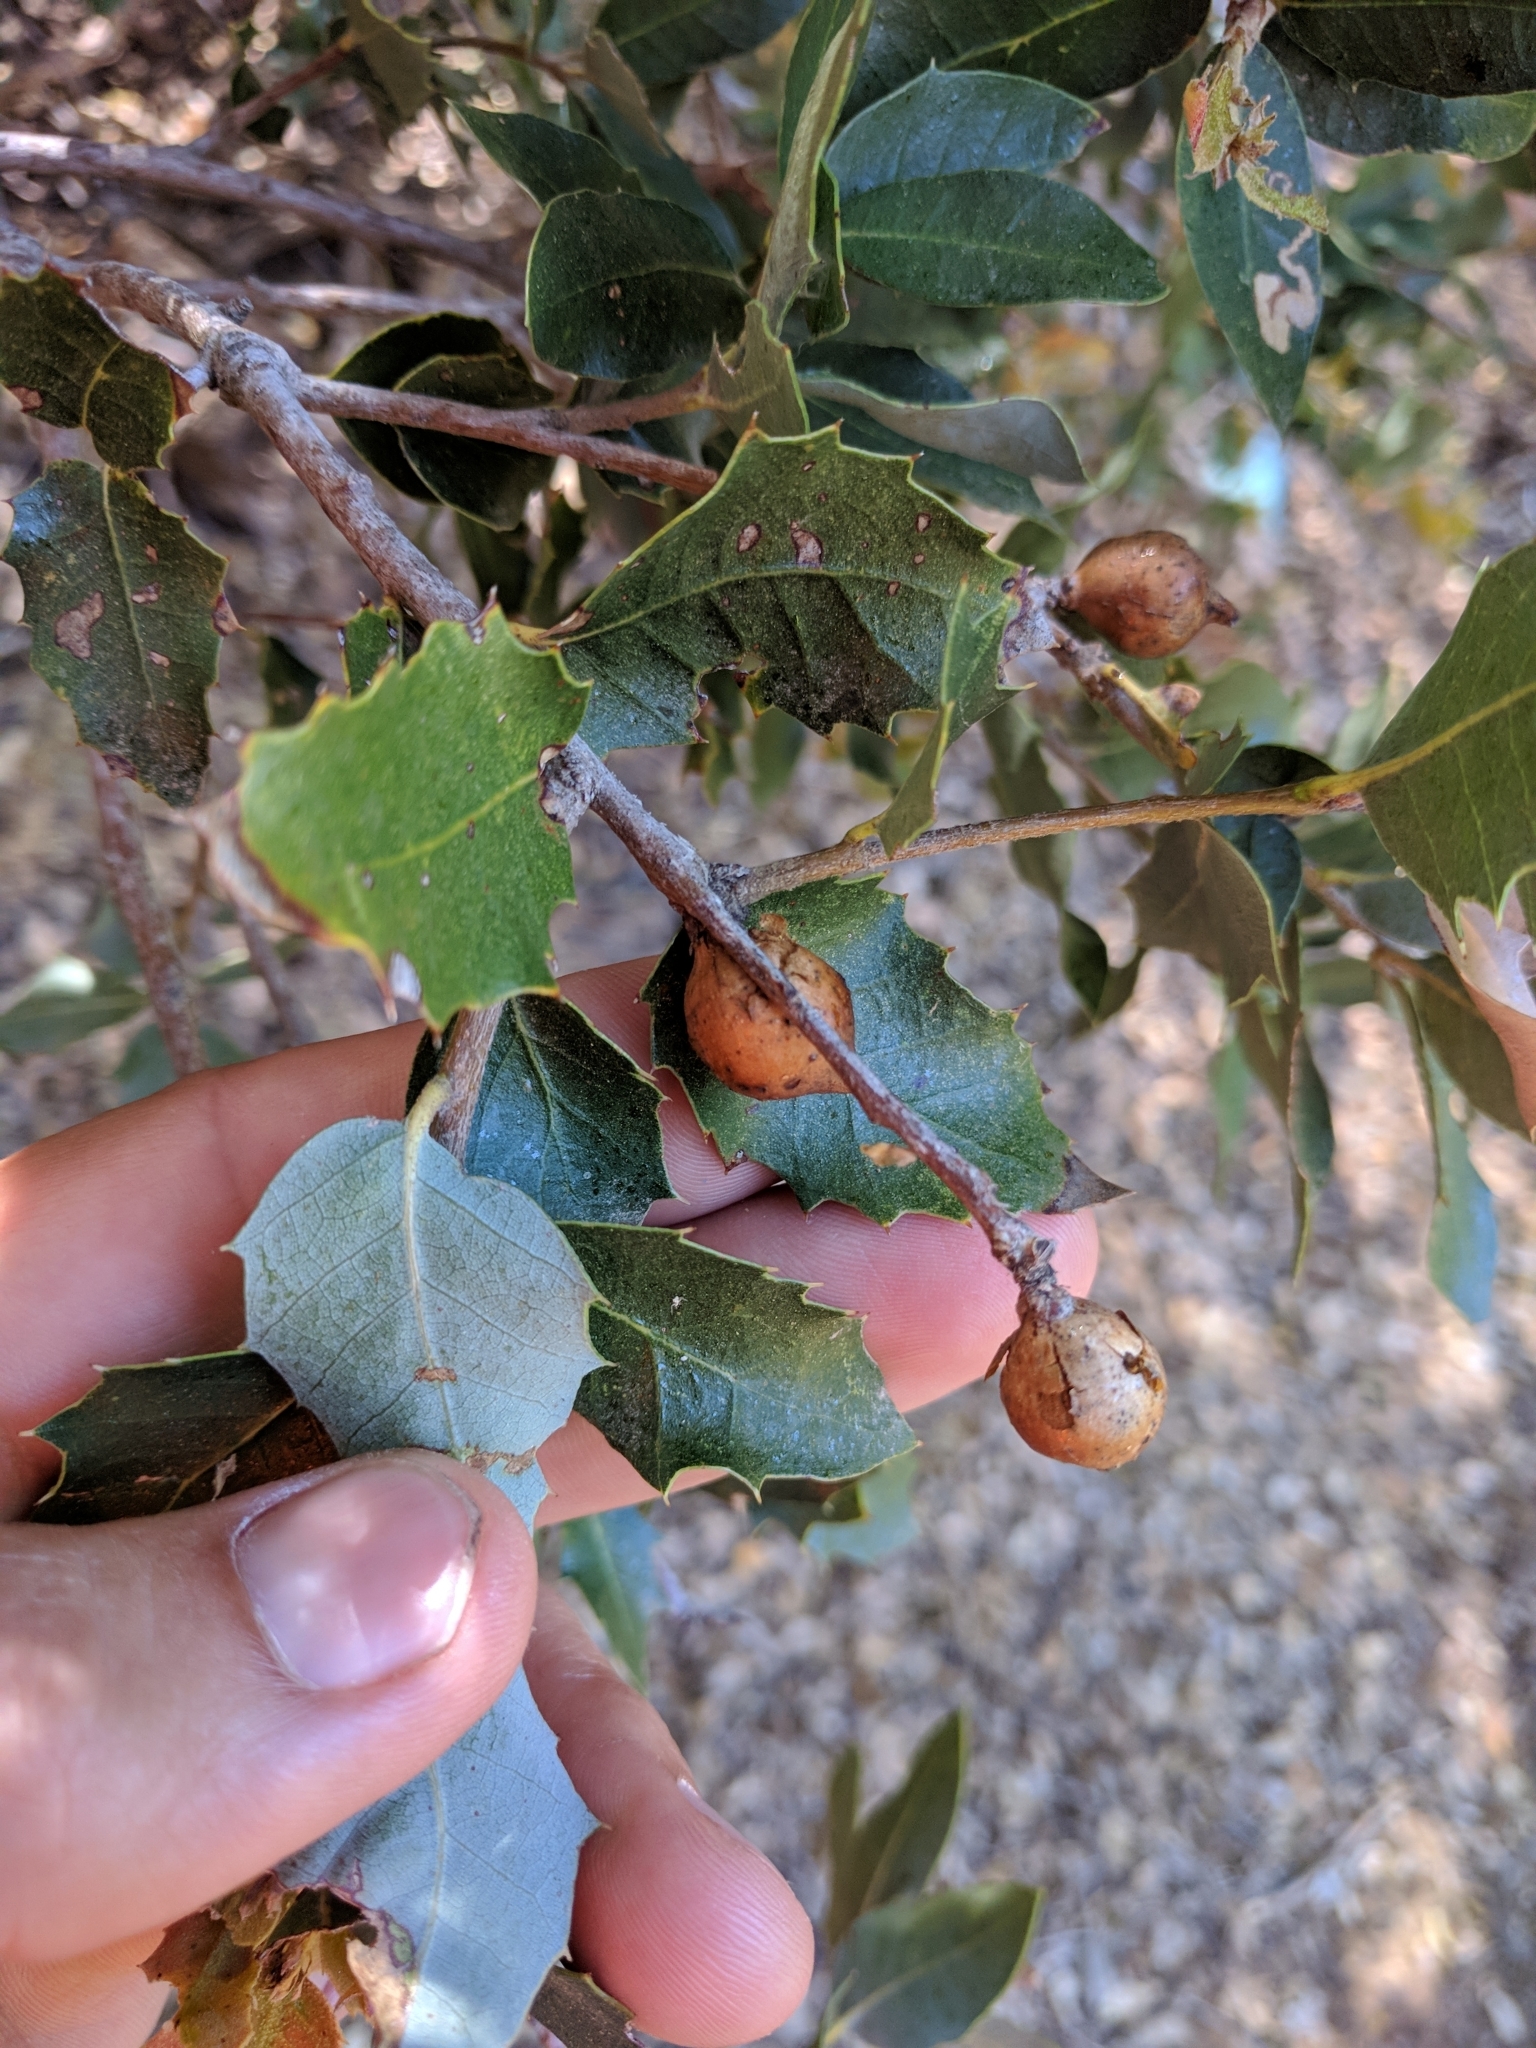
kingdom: Plantae
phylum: Tracheophyta
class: Magnoliopsida
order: Fagales
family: Fagaceae
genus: Quercus
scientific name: Quercus chrysolepis
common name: Canyon live oak
